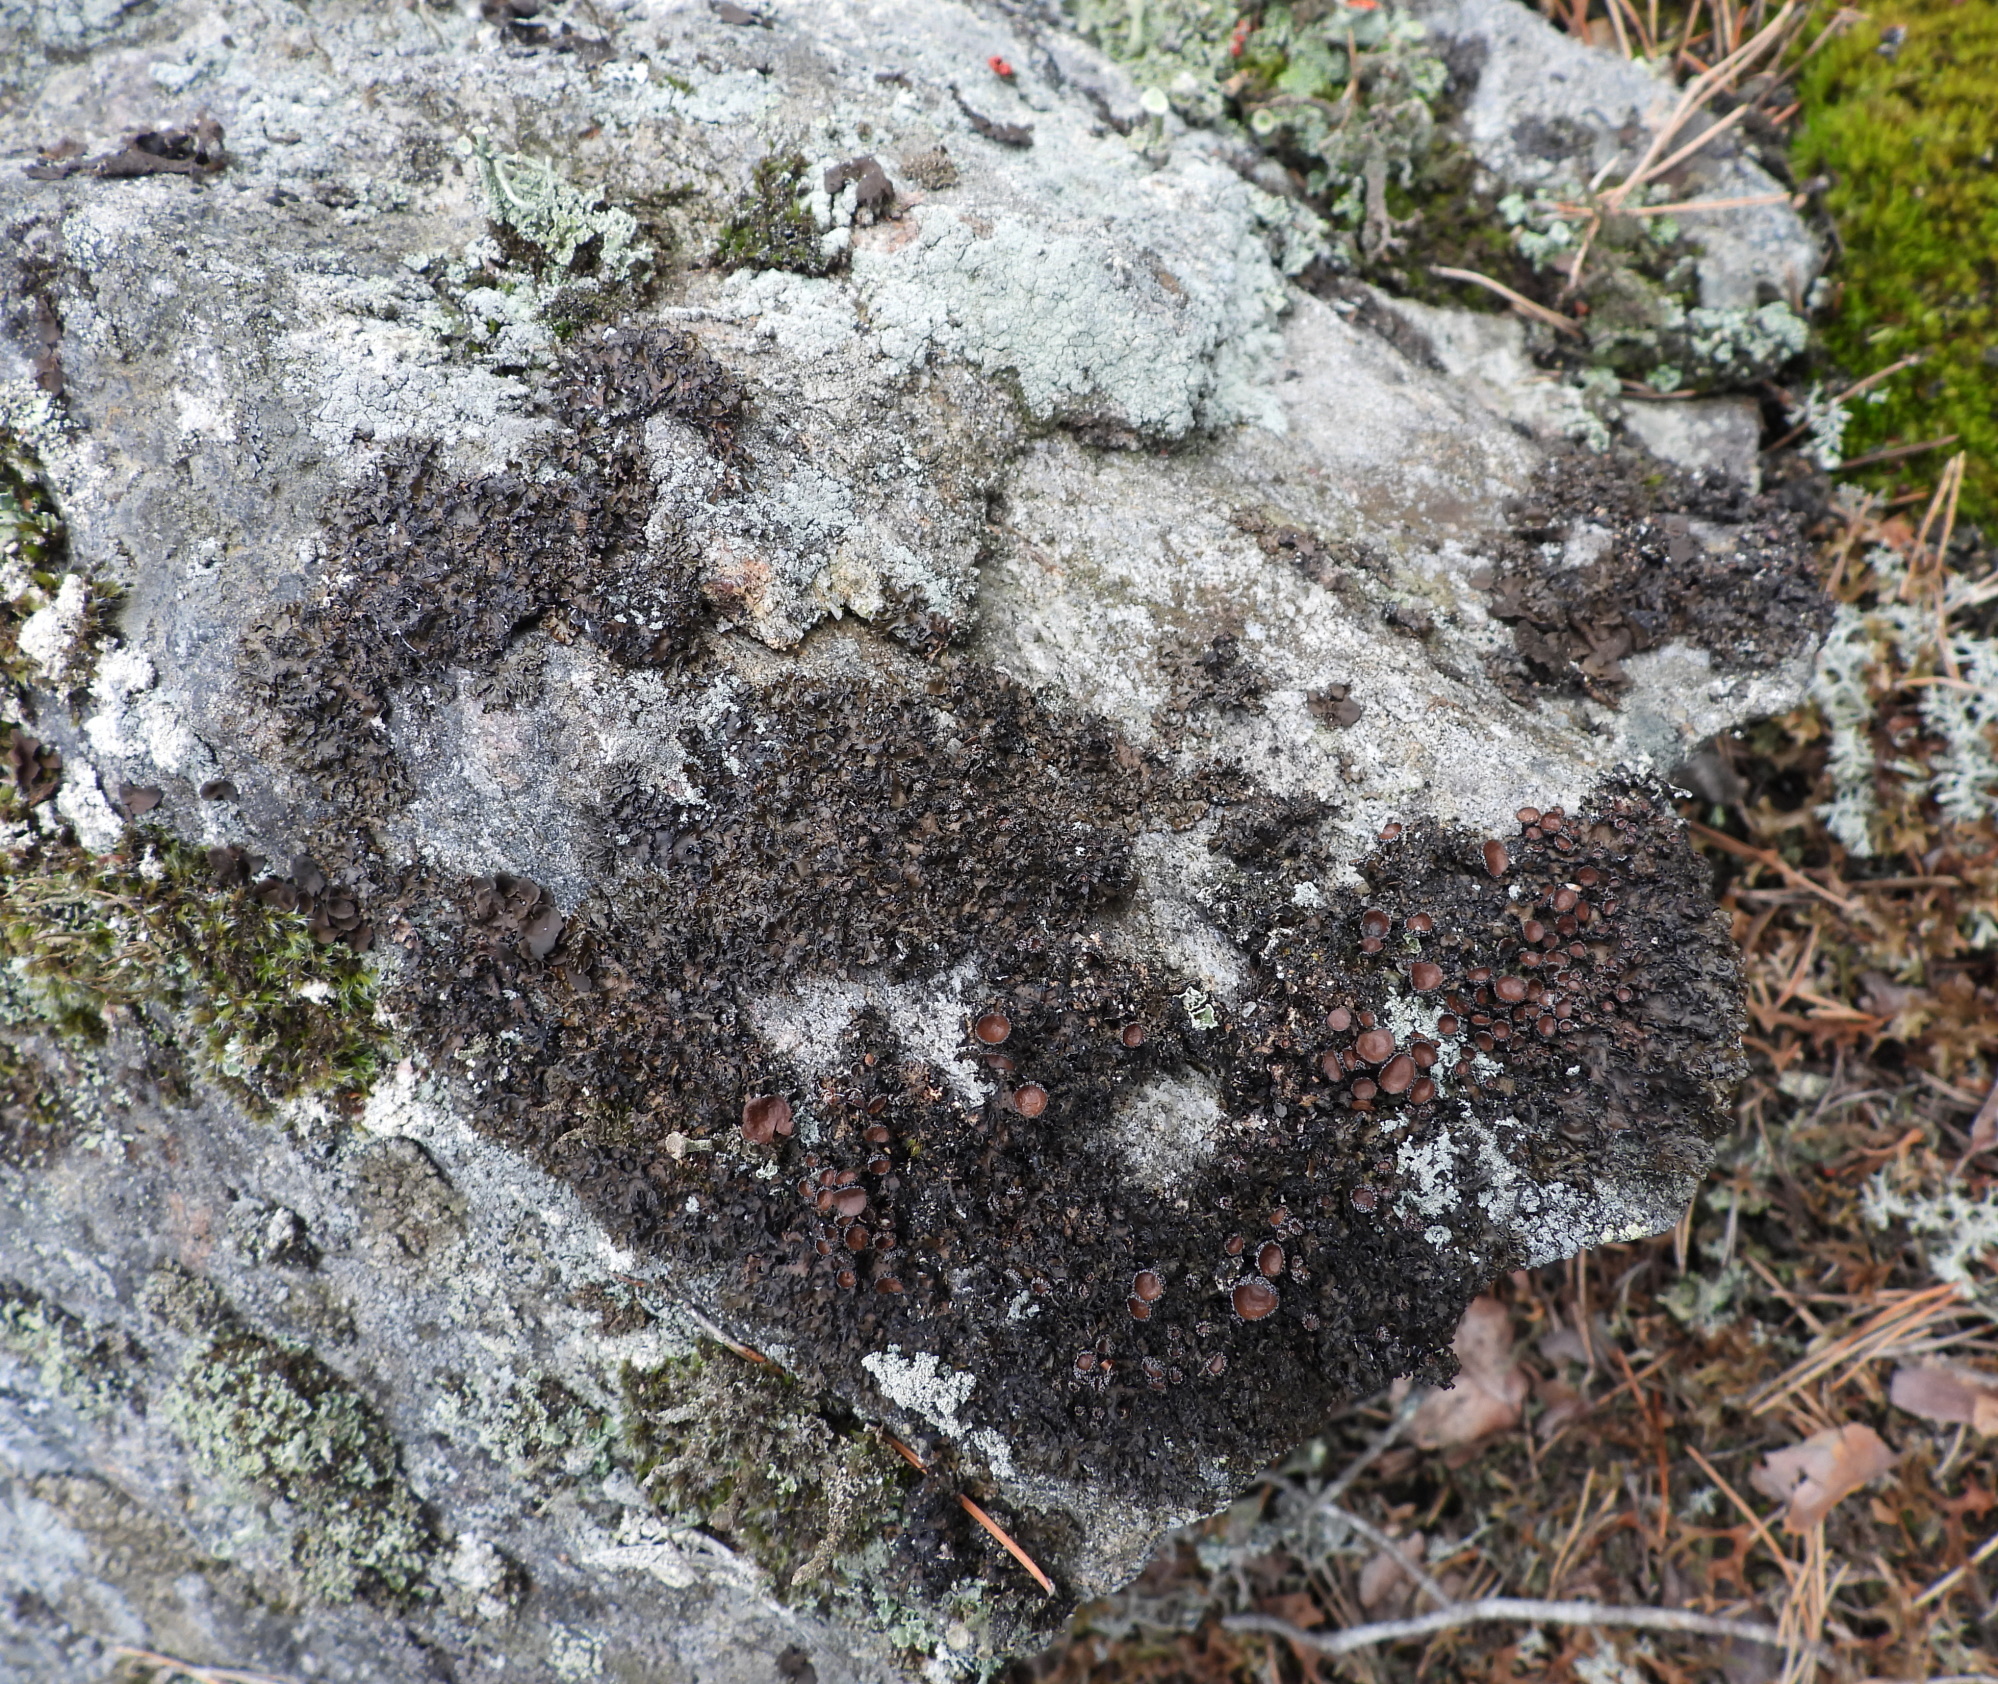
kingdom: Fungi
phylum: Ascomycota
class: Lecanoromycetes
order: Lecanorales
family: Parmeliaceae
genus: Melanelia
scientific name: Melanelia hepatizon
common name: Rimmed camouflage lichen
